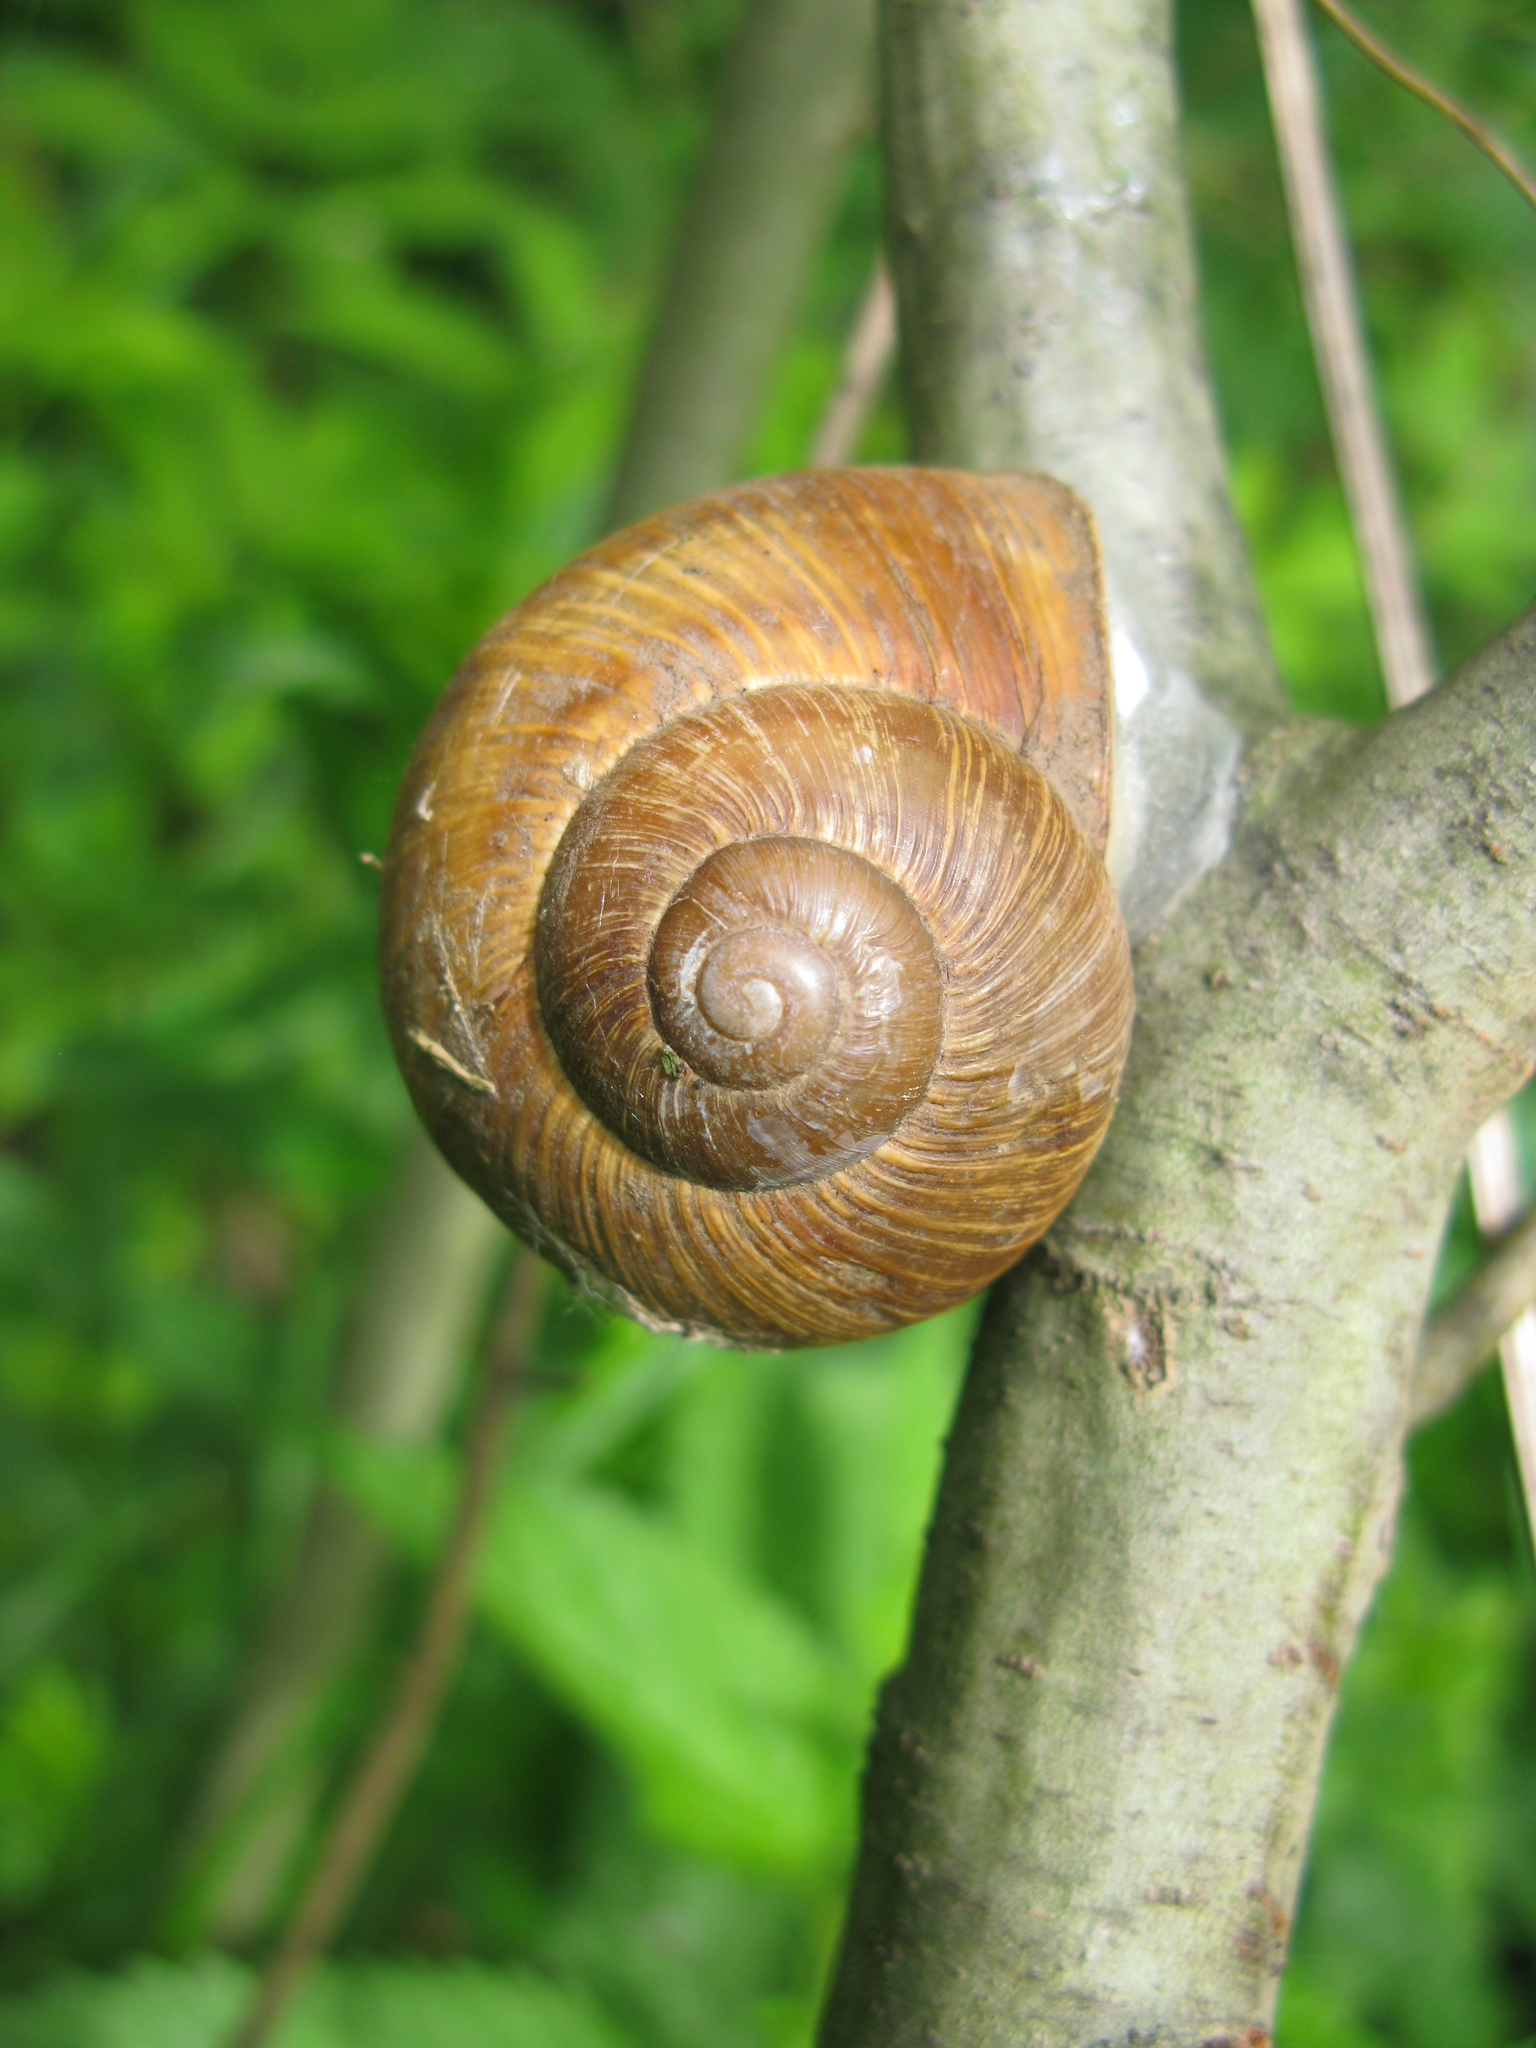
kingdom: Animalia
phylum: Mollusca
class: Gastropoda
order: Stylommatophora
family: Helicidae
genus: Helix
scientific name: Helix pomatia
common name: Roman snail
